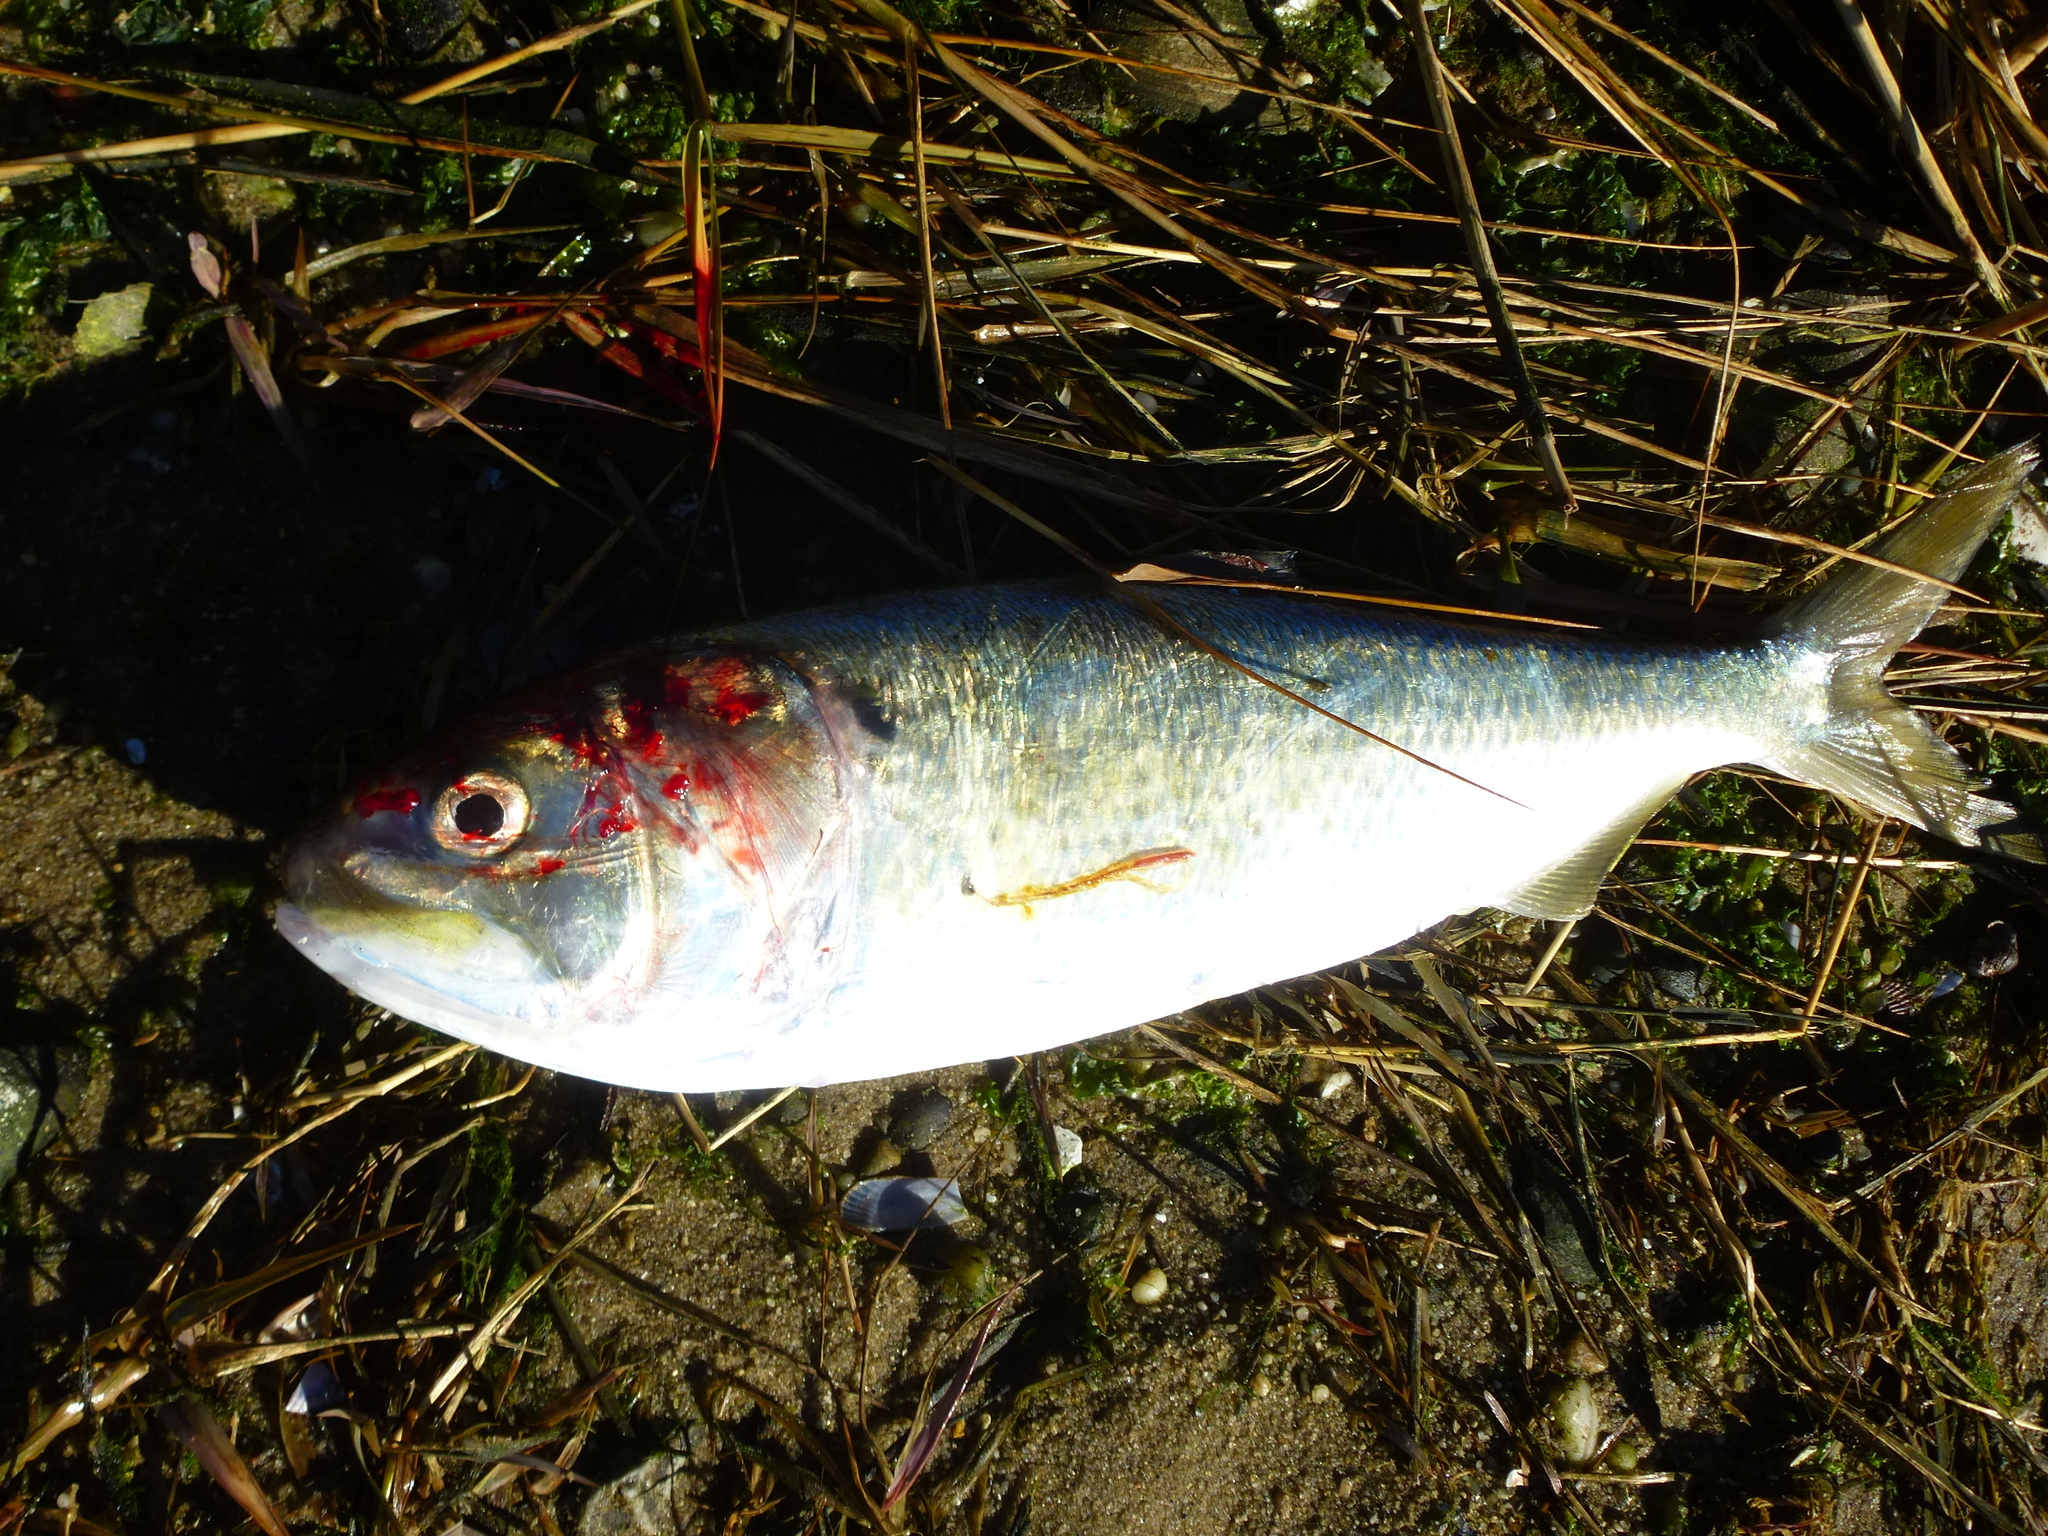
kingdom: Animalia
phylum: Chordata
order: Clupeiformes
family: Clupeidae
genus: Brevoortia
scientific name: Brevoortia tyrannus
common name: Atlantic menhaden
